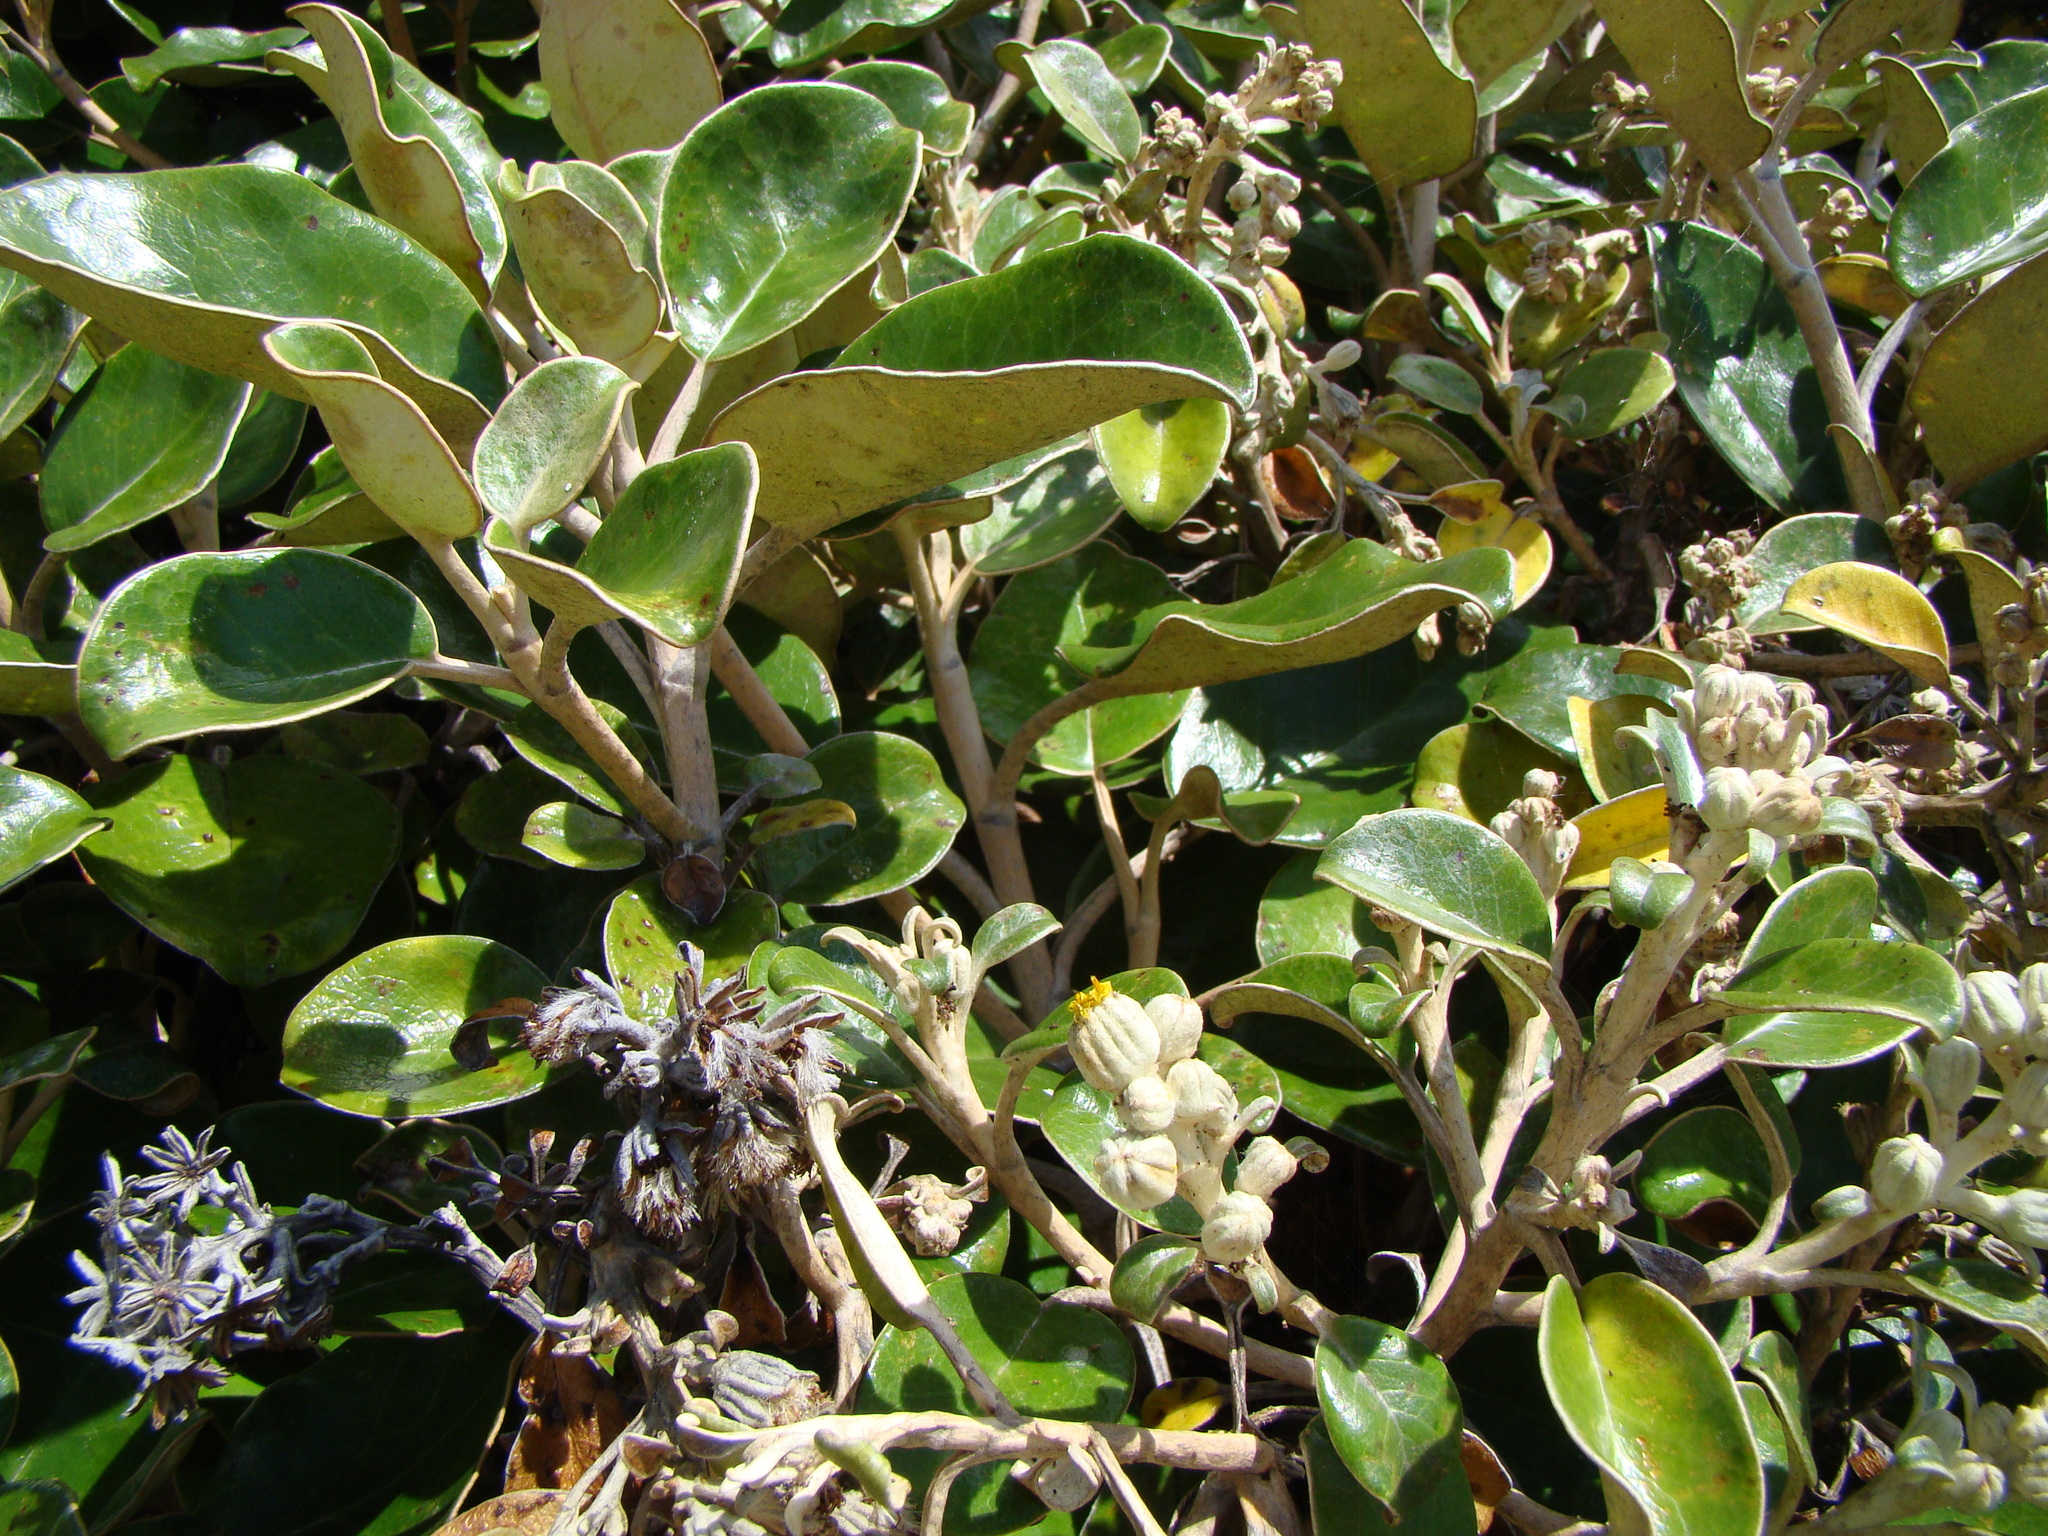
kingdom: Plantae
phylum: Tracheophyta
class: Magnoliopsida
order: Asterales
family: Asteraceae
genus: Brachyglottis
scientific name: Brachyglottis rotundifolia
